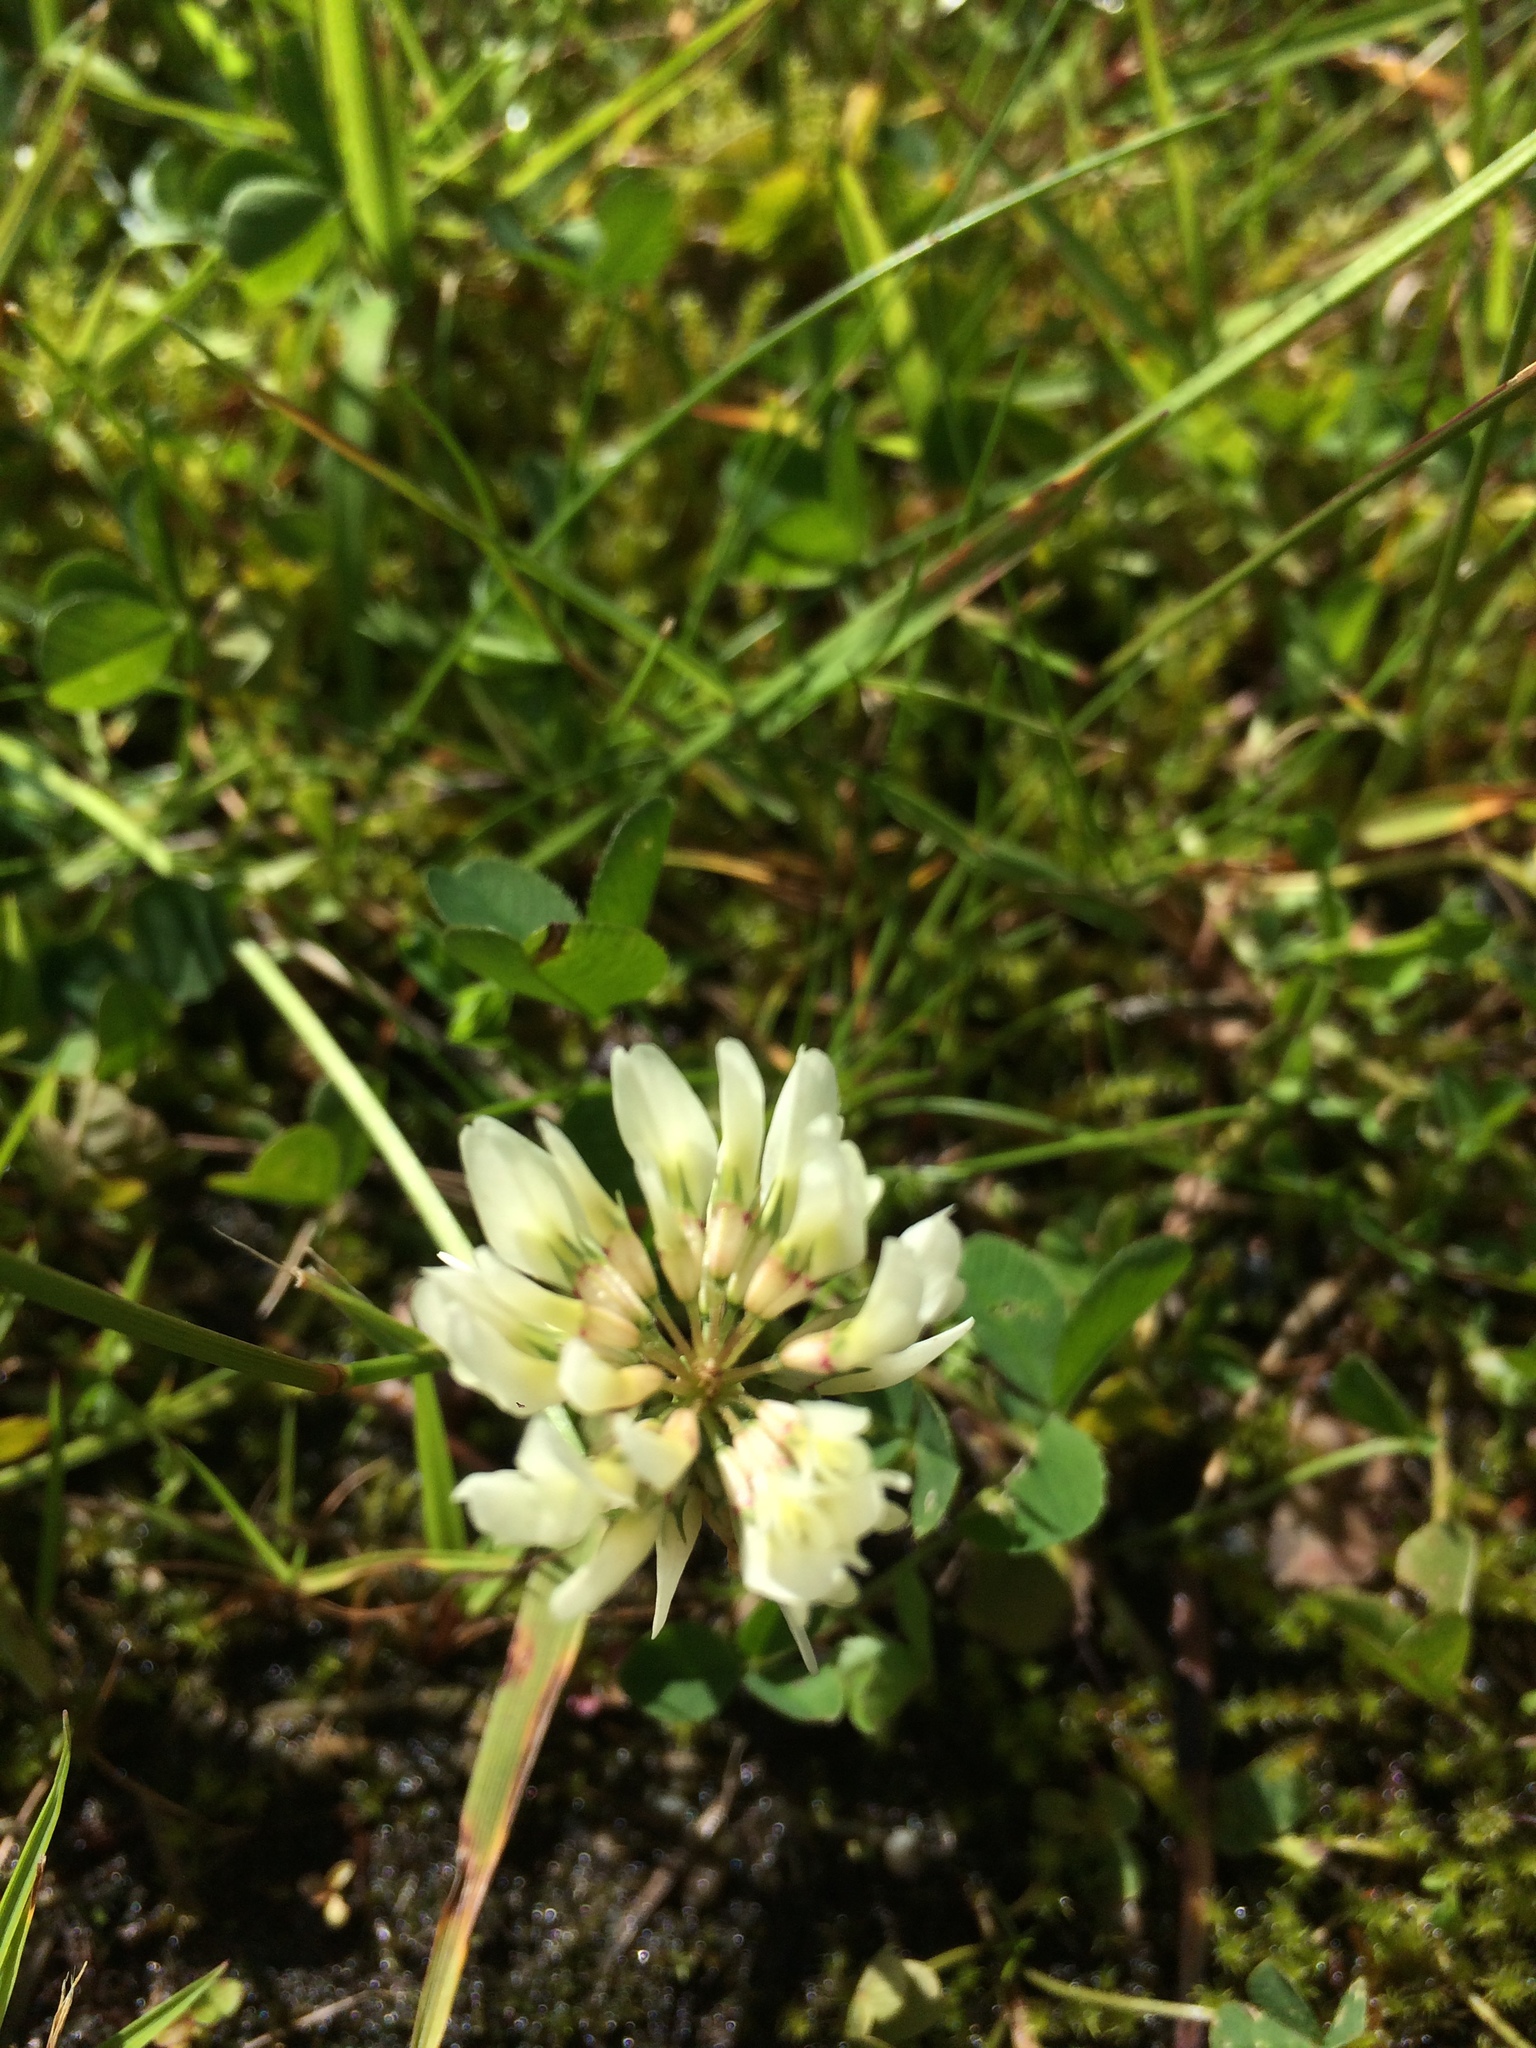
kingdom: Plantae
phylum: Tracheophyta
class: Magnoliopsida
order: Fabales
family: Fabaceae
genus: Trifolium
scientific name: Trifolium repens
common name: White clover
